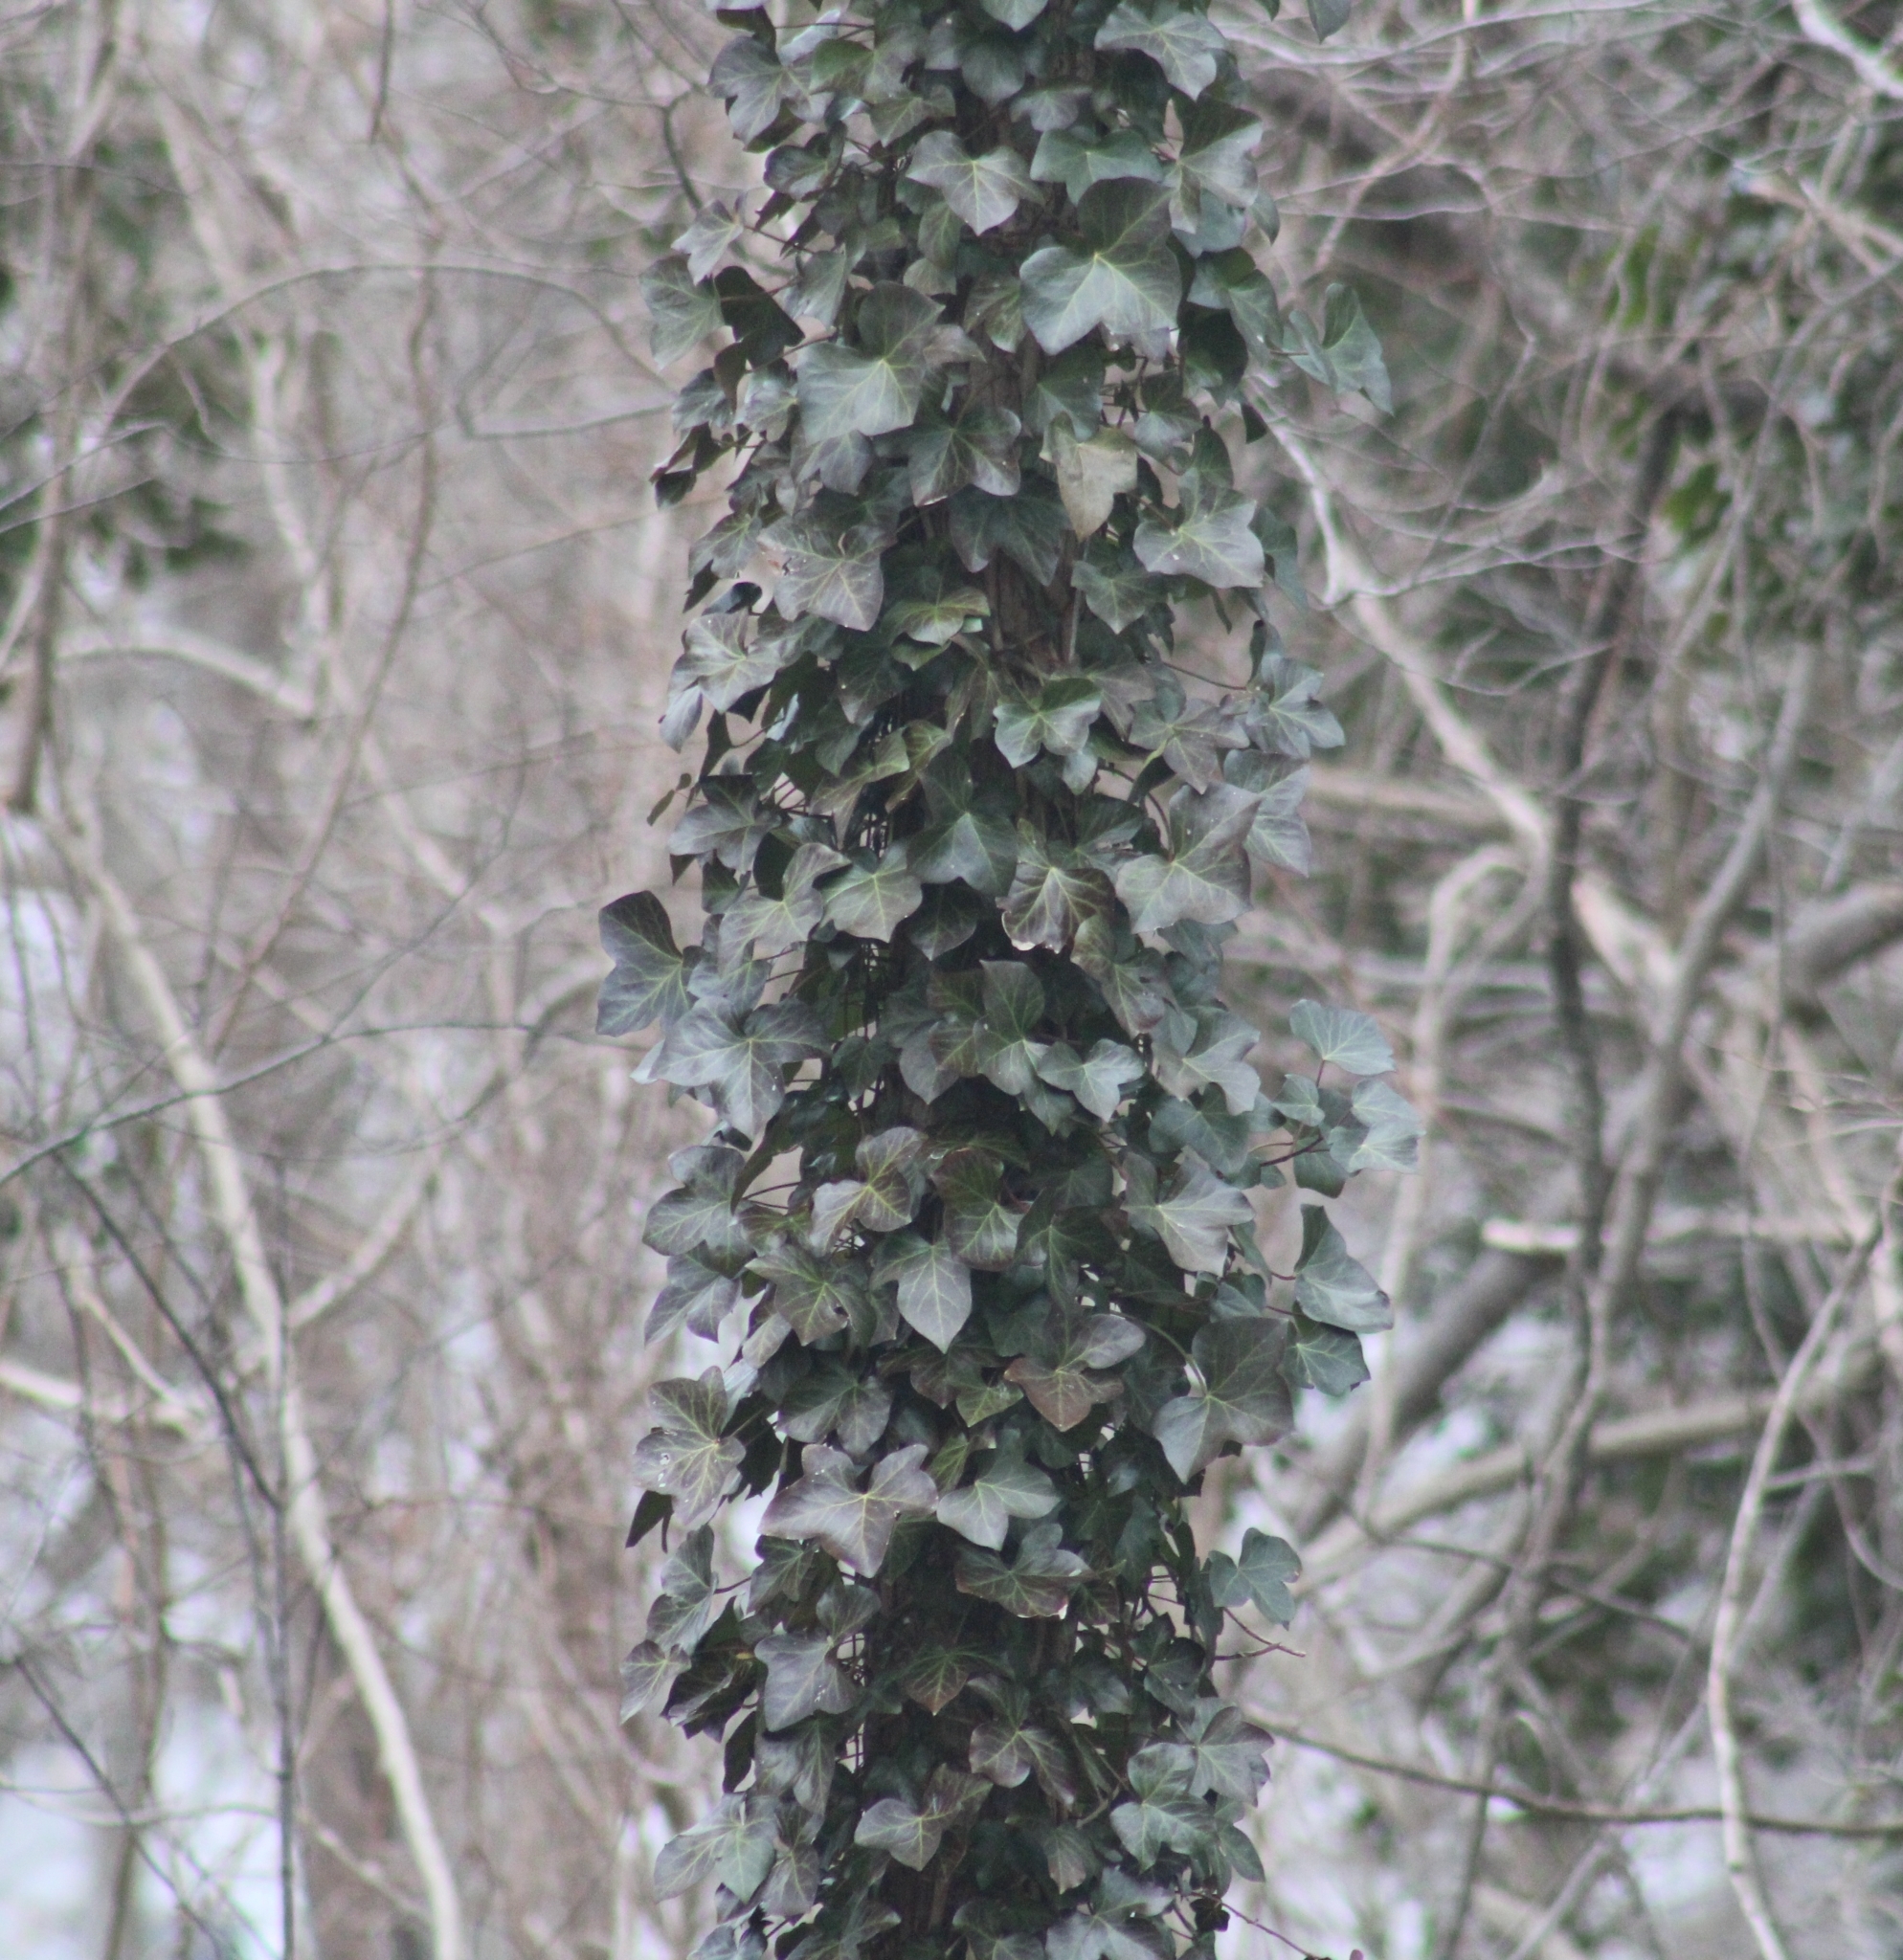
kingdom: Plantae
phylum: Tracheophyta
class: Magnoliopsida
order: Apiales
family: Araliaceae
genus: Hedera
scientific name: Hedera helix
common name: Ivy
